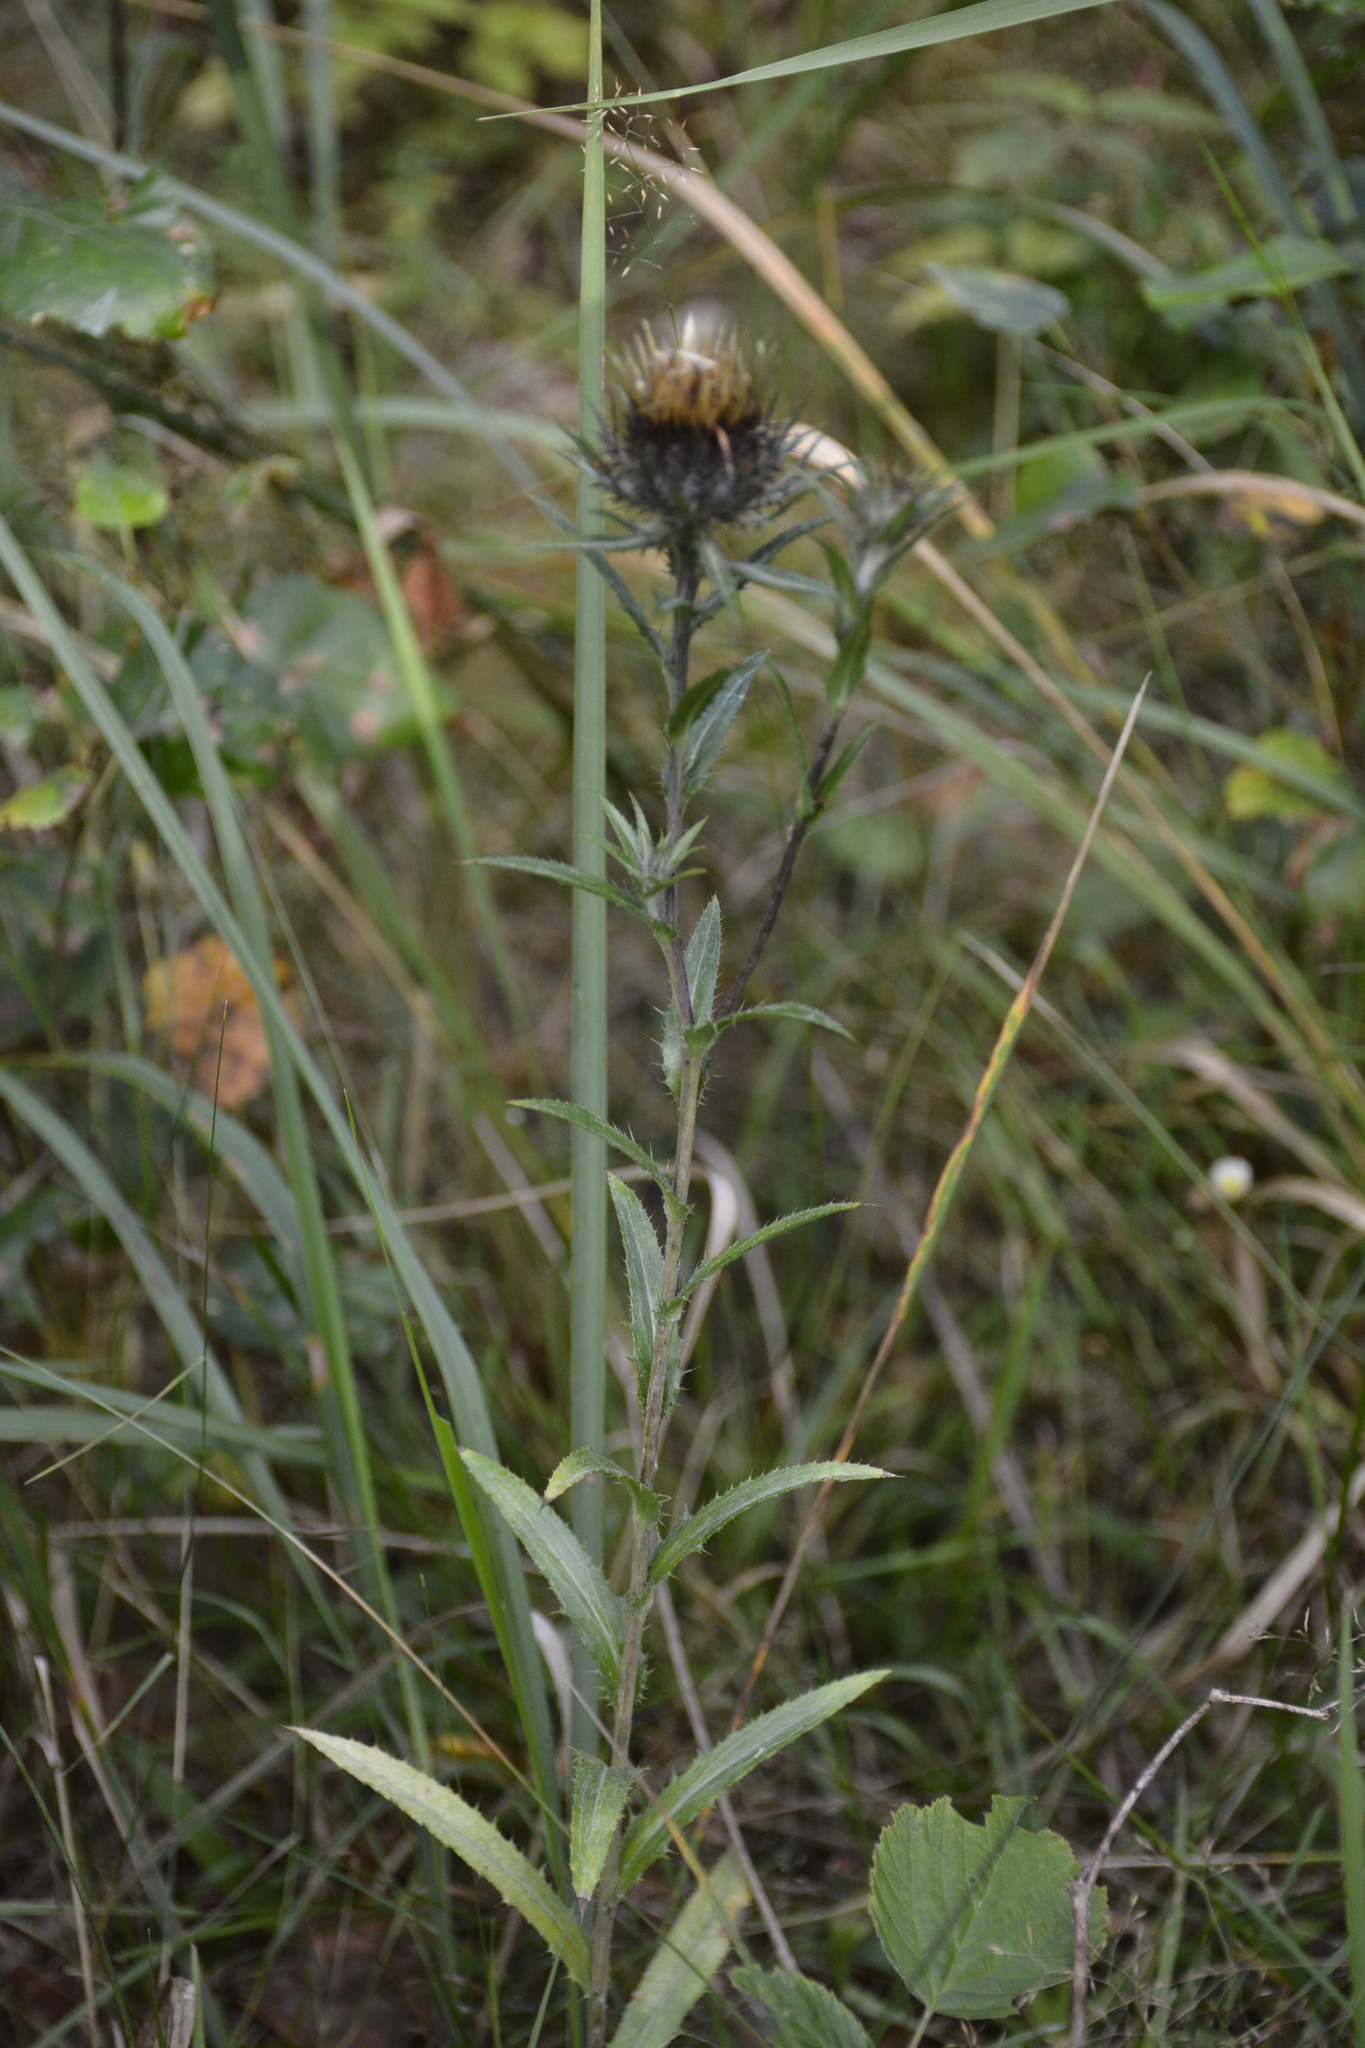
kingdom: Plantae
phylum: Tracheophyta
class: Magnoliopsida
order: Asterales
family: Asteraceae
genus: Carlina
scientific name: Carlina biebersteinii
